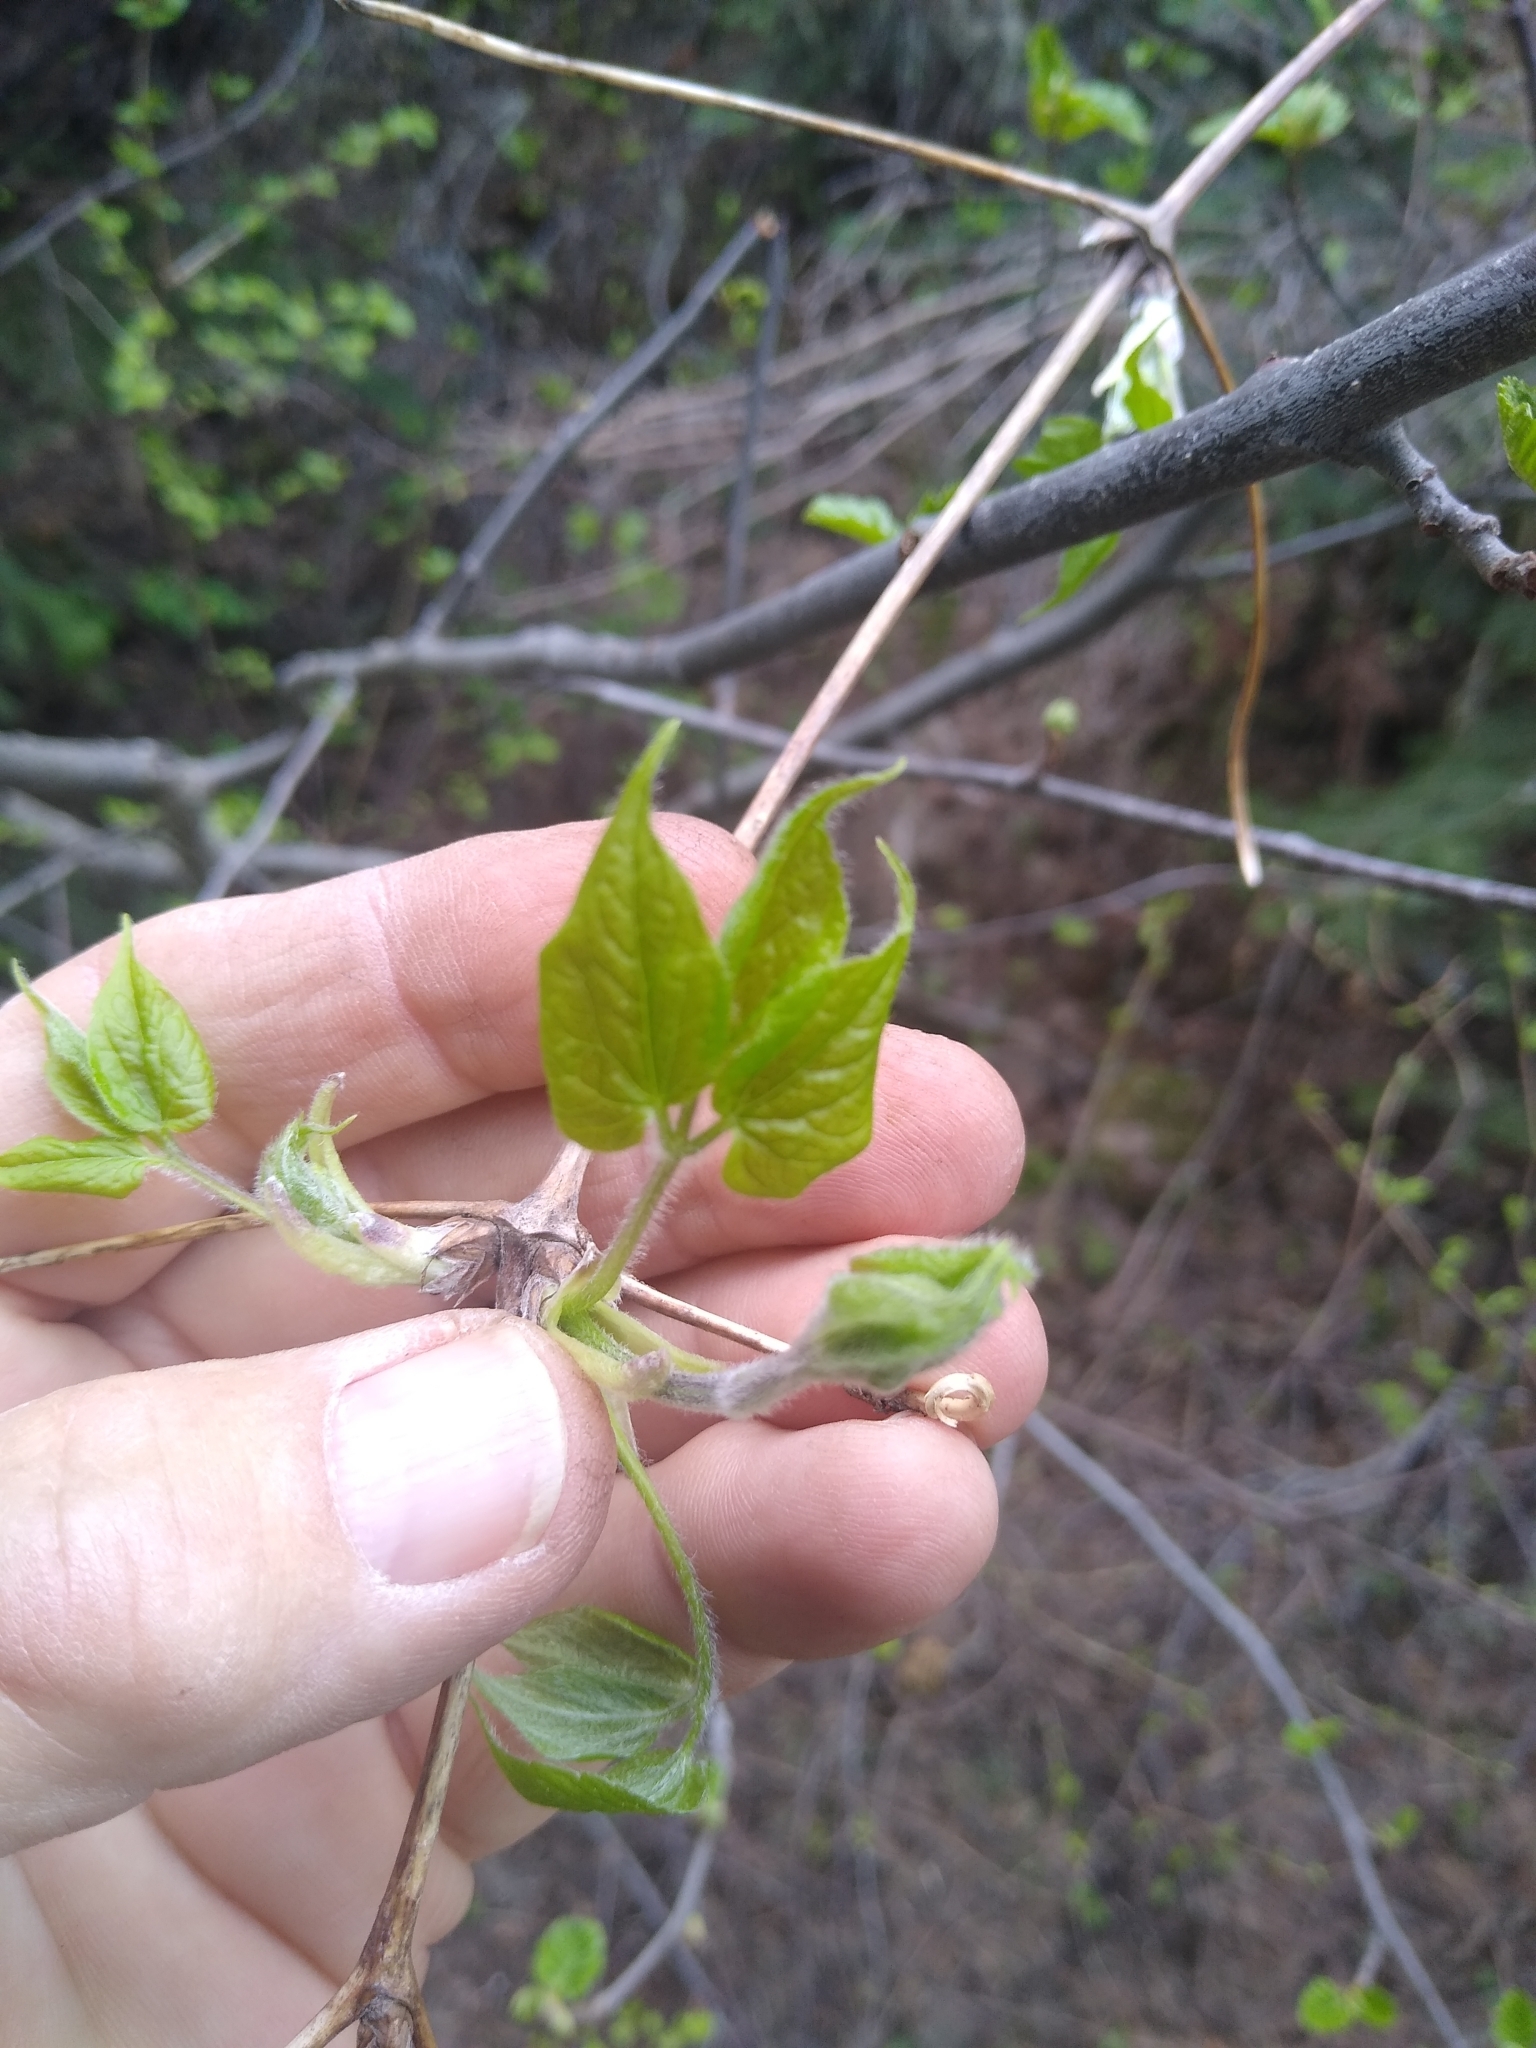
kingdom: Plantae
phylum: Tracheophyta
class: Magnoliopsida
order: Ranunculales
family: Ranunculaceae
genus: Clematis
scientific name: Clematis ligusticifolia
